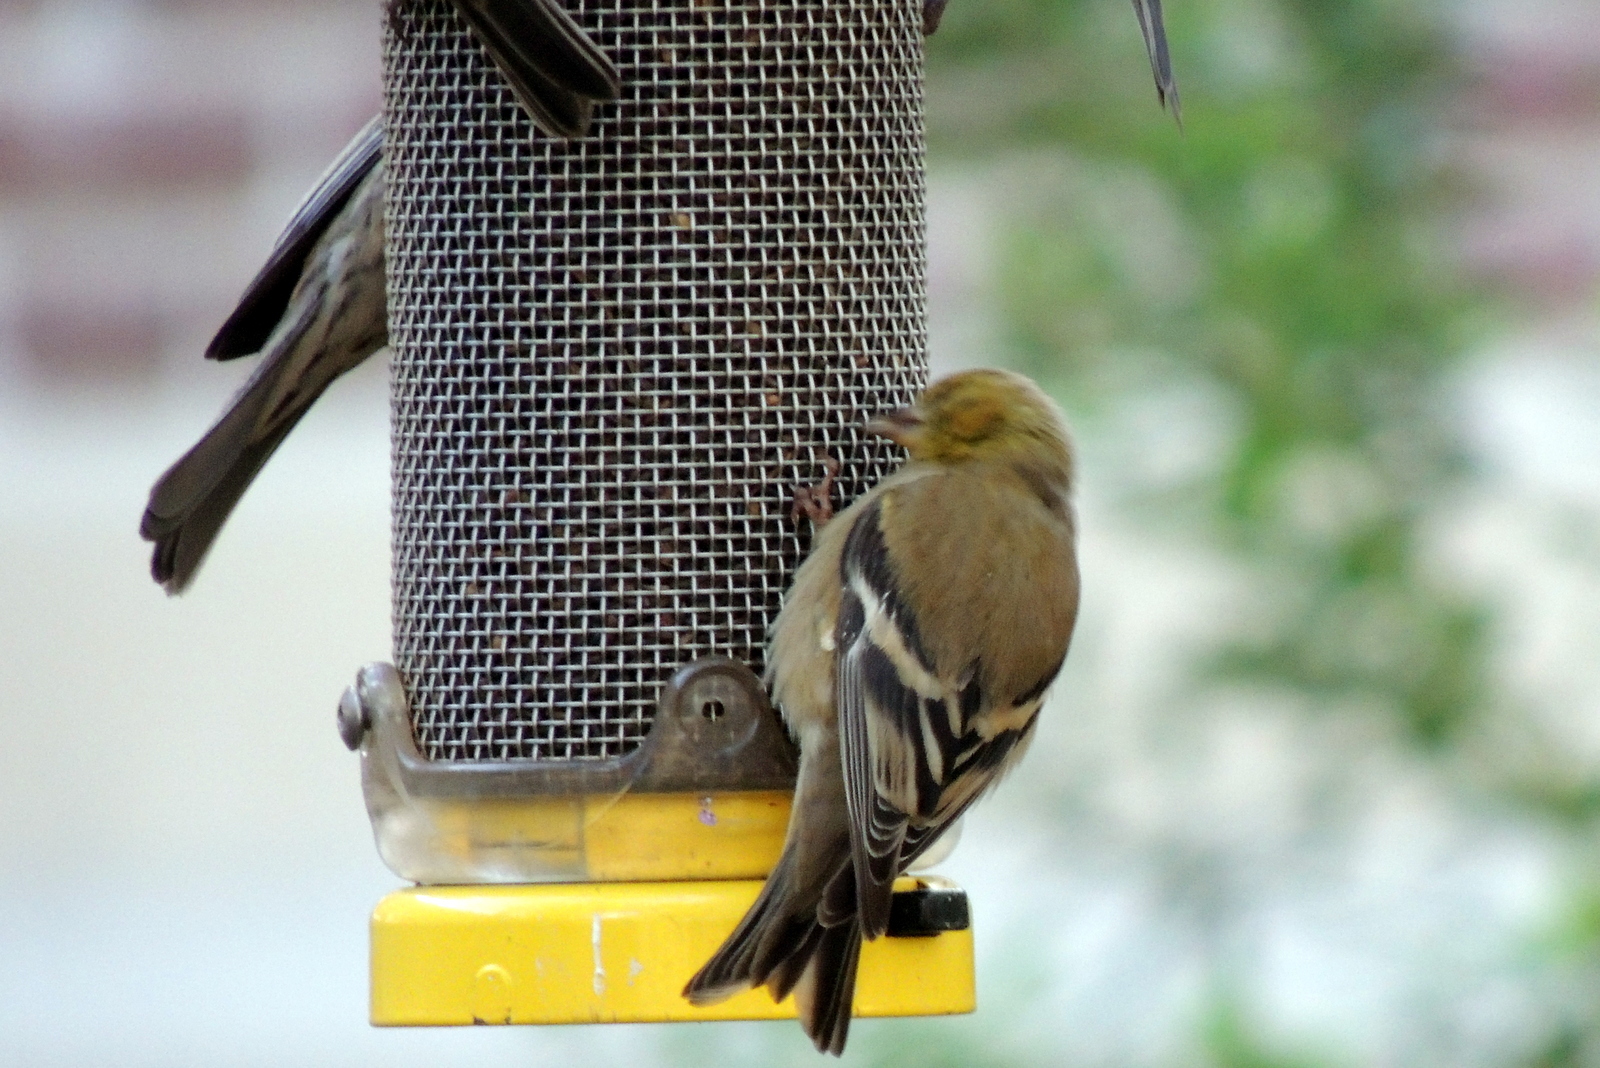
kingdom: Animalia
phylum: Chordata
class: Aves
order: Passeriformes
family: Fringillidae
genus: Spinus
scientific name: Spinus tristis
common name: American goldfinch
